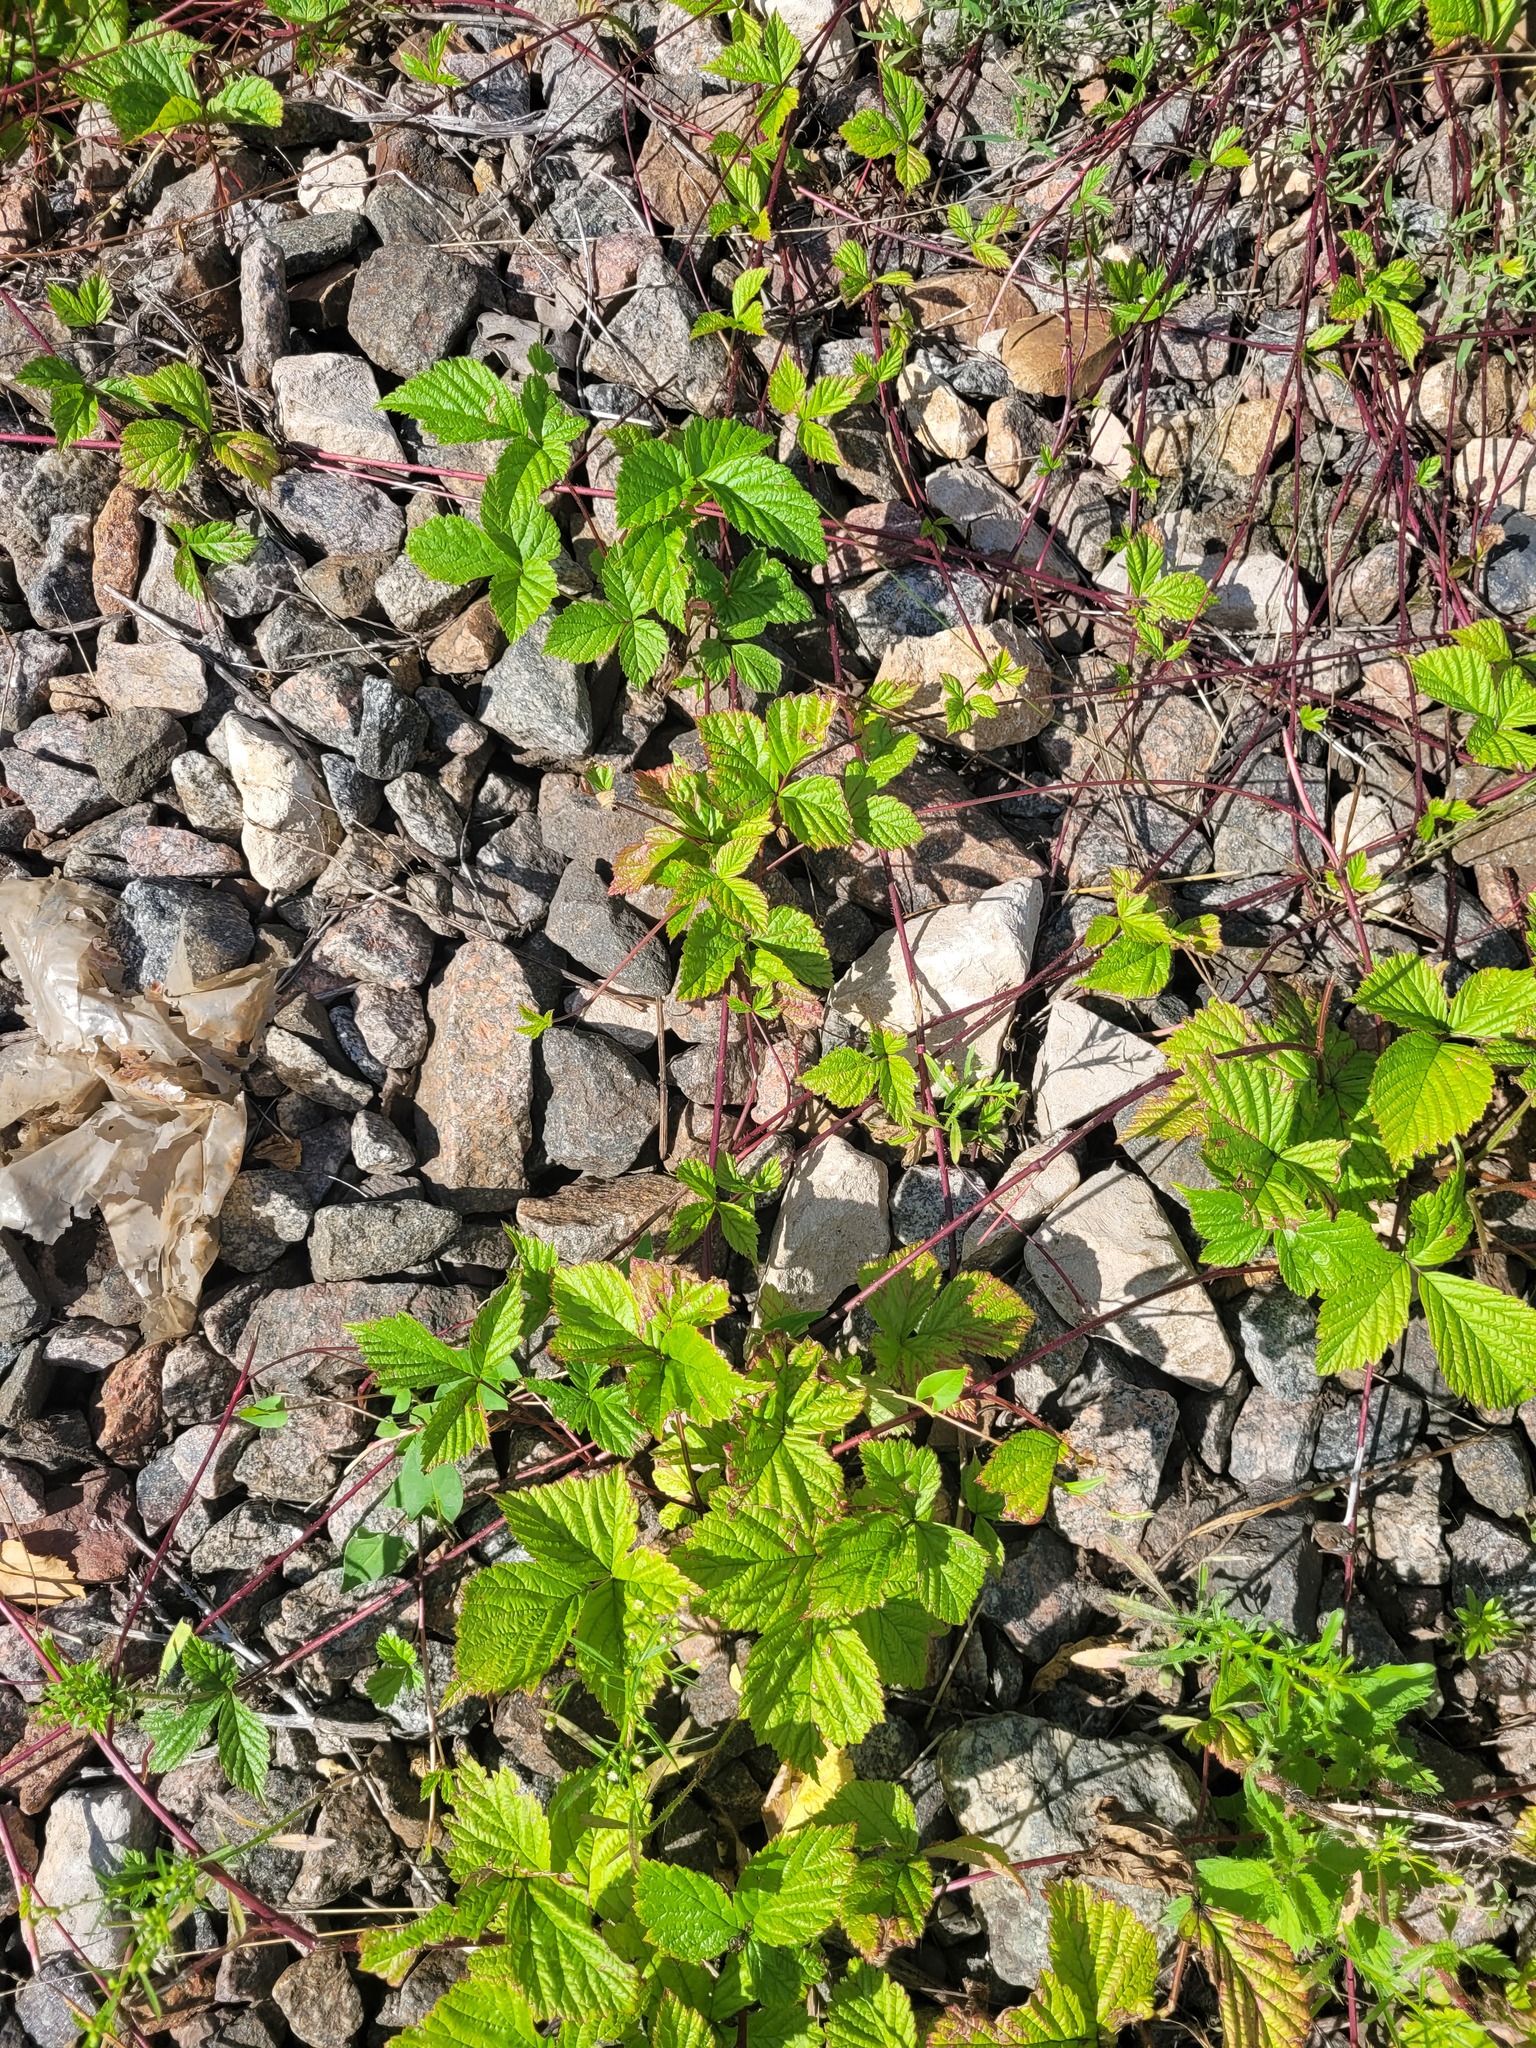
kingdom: Plantae
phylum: Tracheophyta
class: Magnoliopsida
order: Rosales
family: Rosaceae
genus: Rubus
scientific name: Rubus saxatilis
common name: Stone bramble
